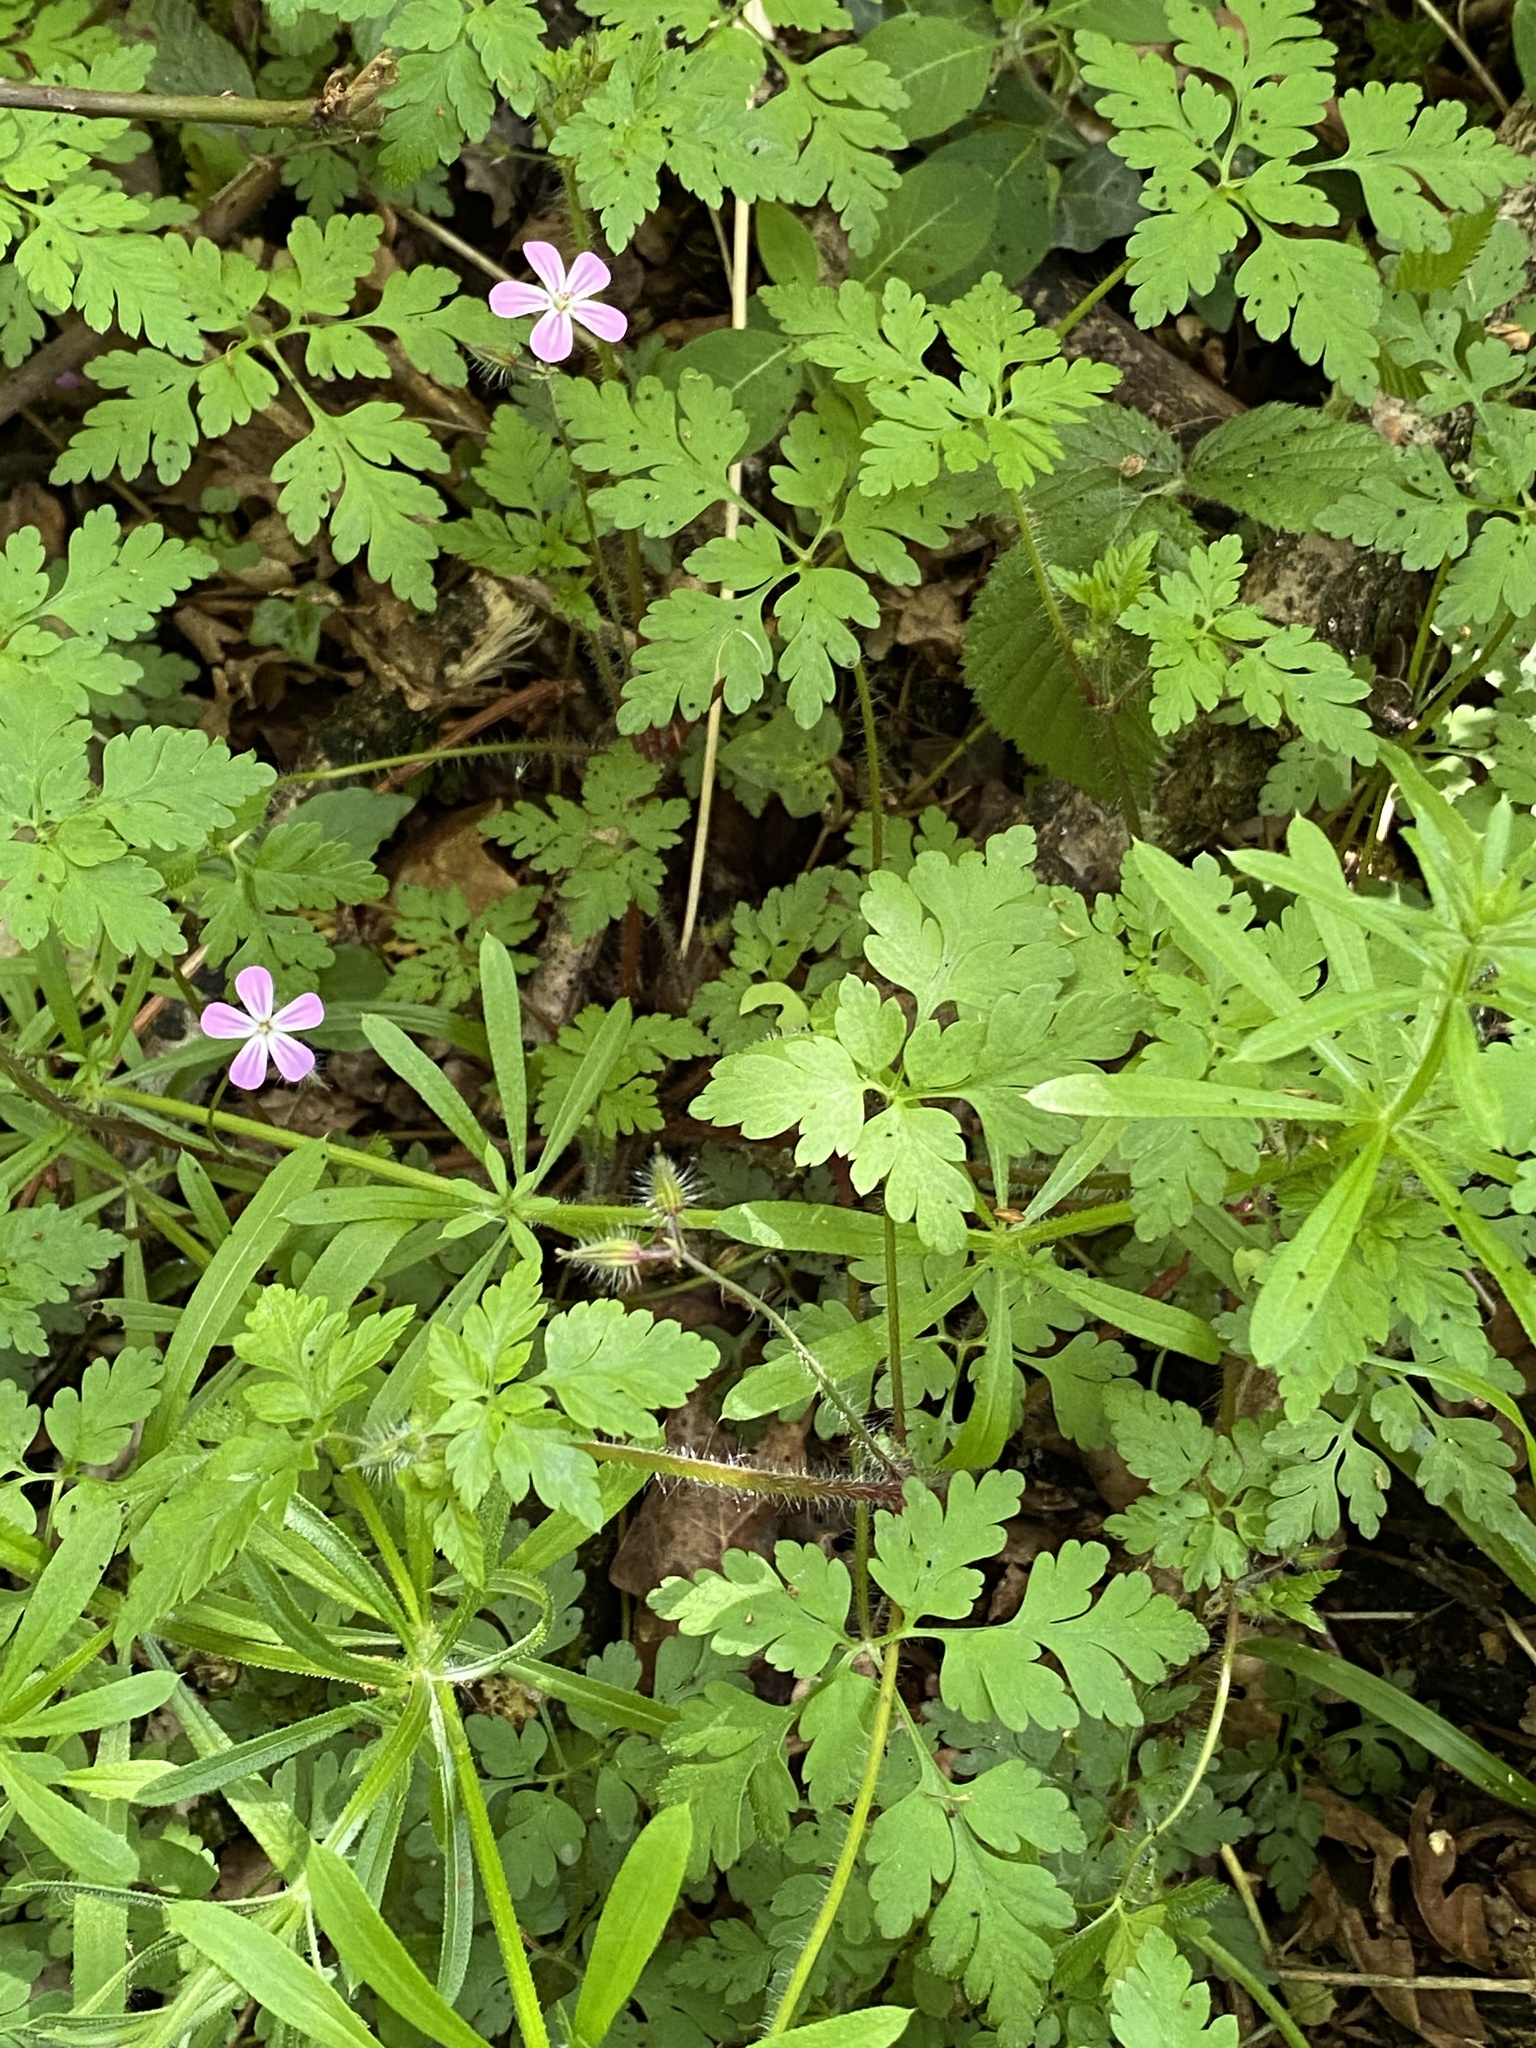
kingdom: Plantae
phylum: Tracheophyta
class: Magnoliopsida
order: Geraniales
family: Geraniaceae
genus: Geranium
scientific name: Geranium robertianum
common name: Herb-robert
